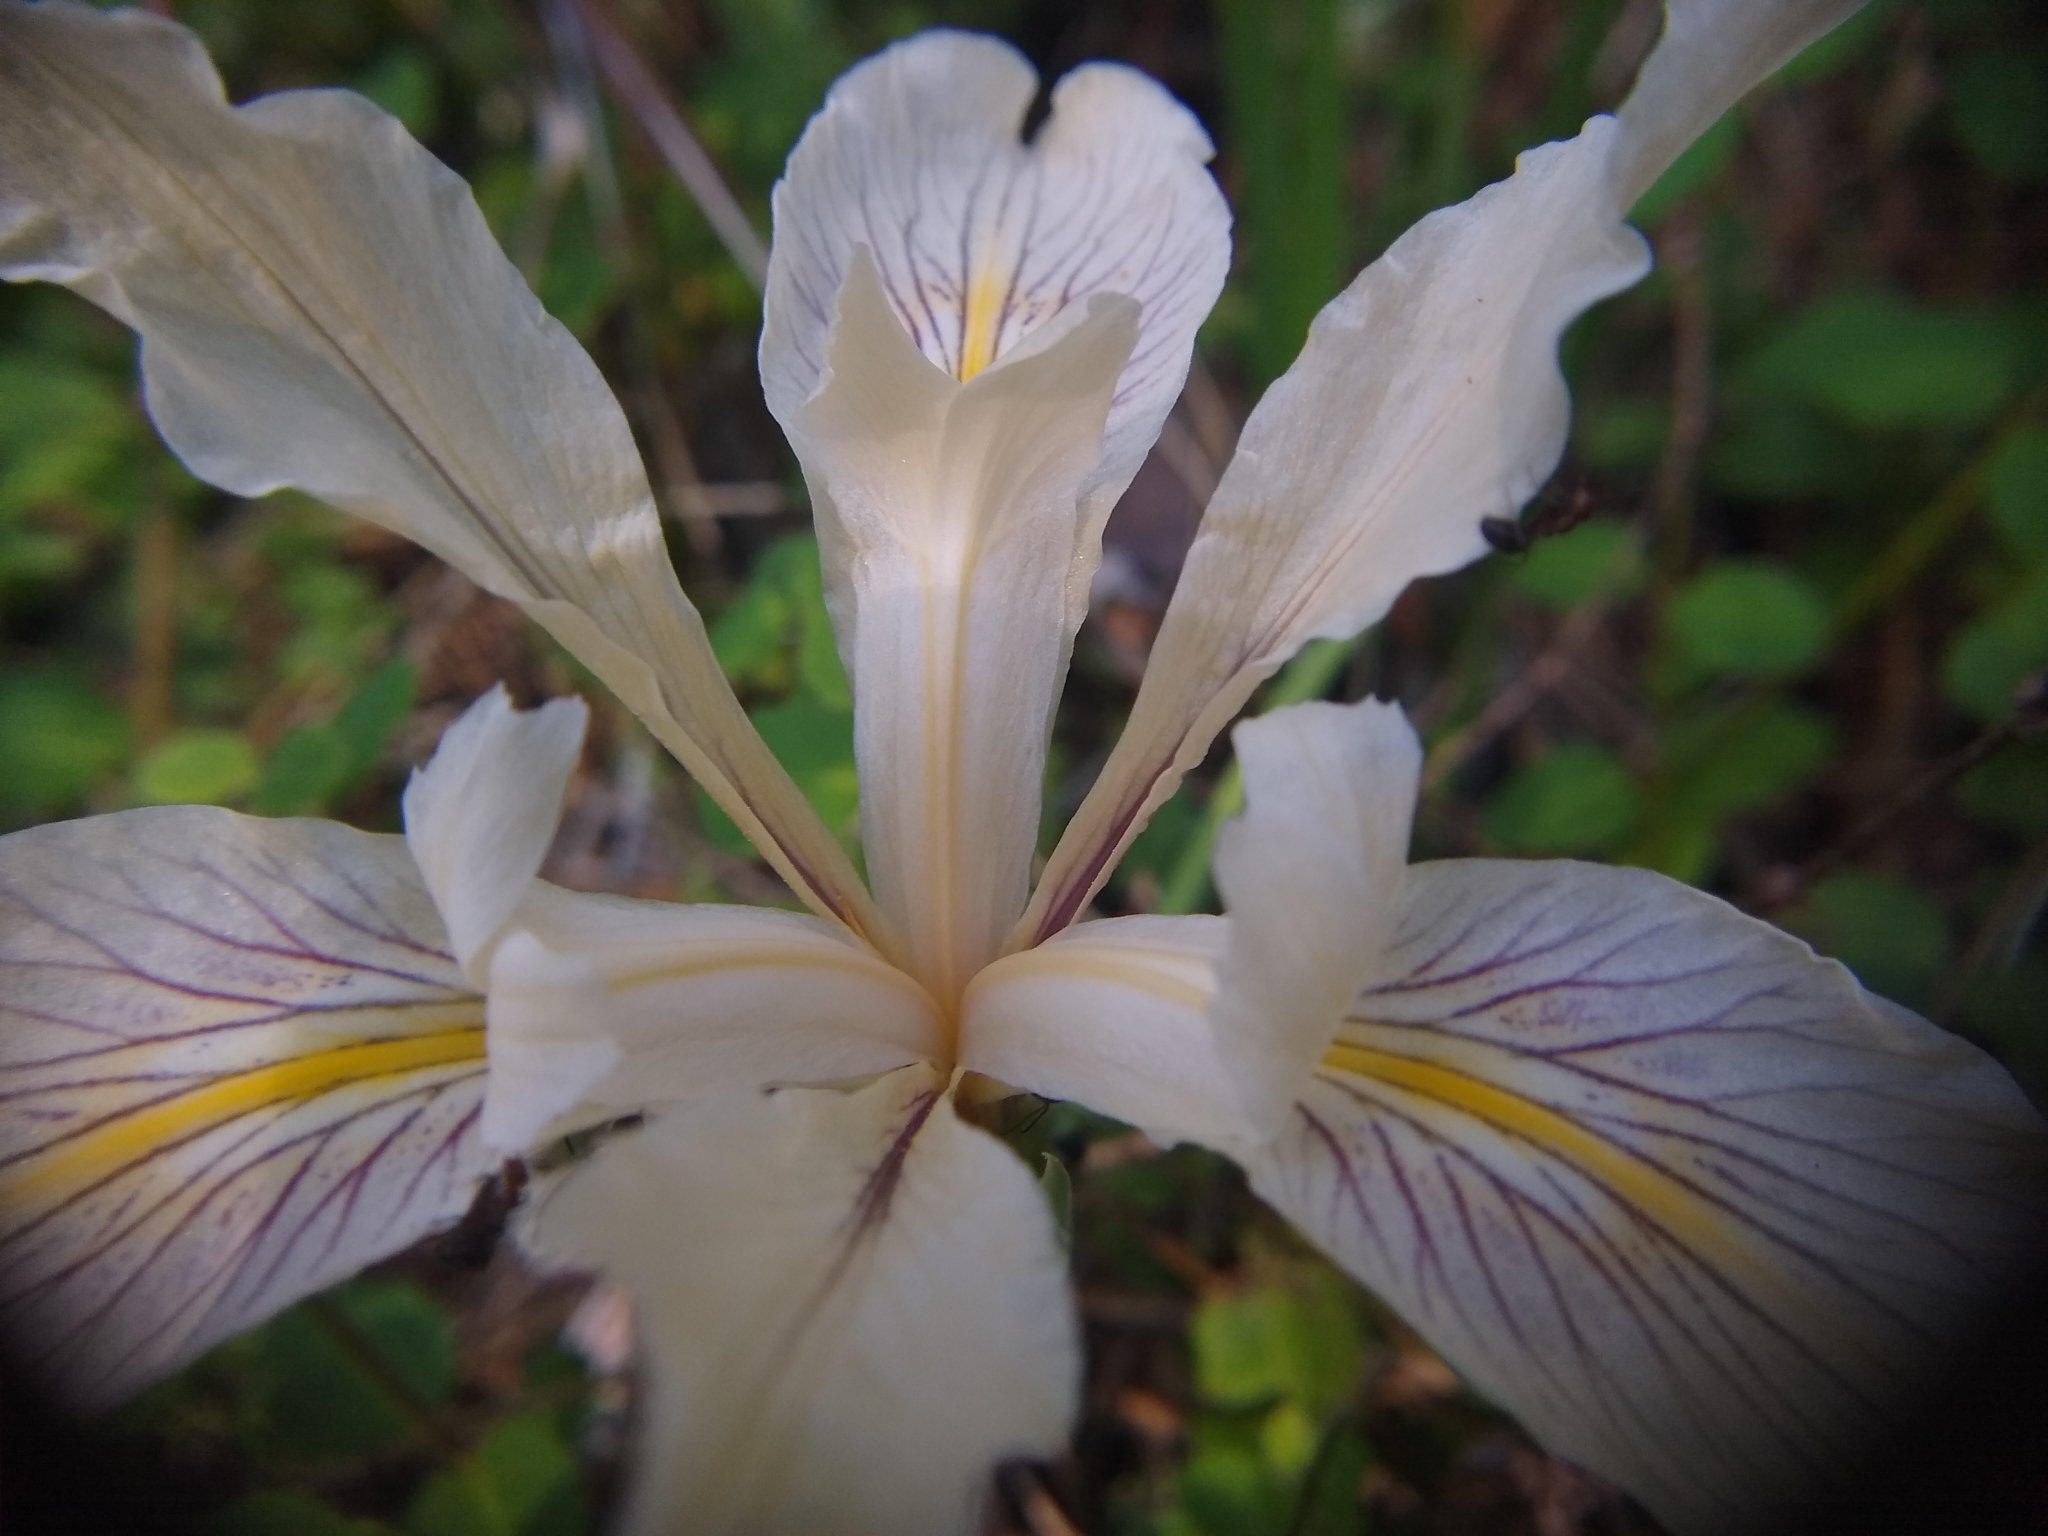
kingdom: Plantae
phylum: Tracheophyta
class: Liliopsida
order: Asparagales
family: Iridaceae
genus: Iris
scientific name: Iris fernaldii
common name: Fernald's iris
